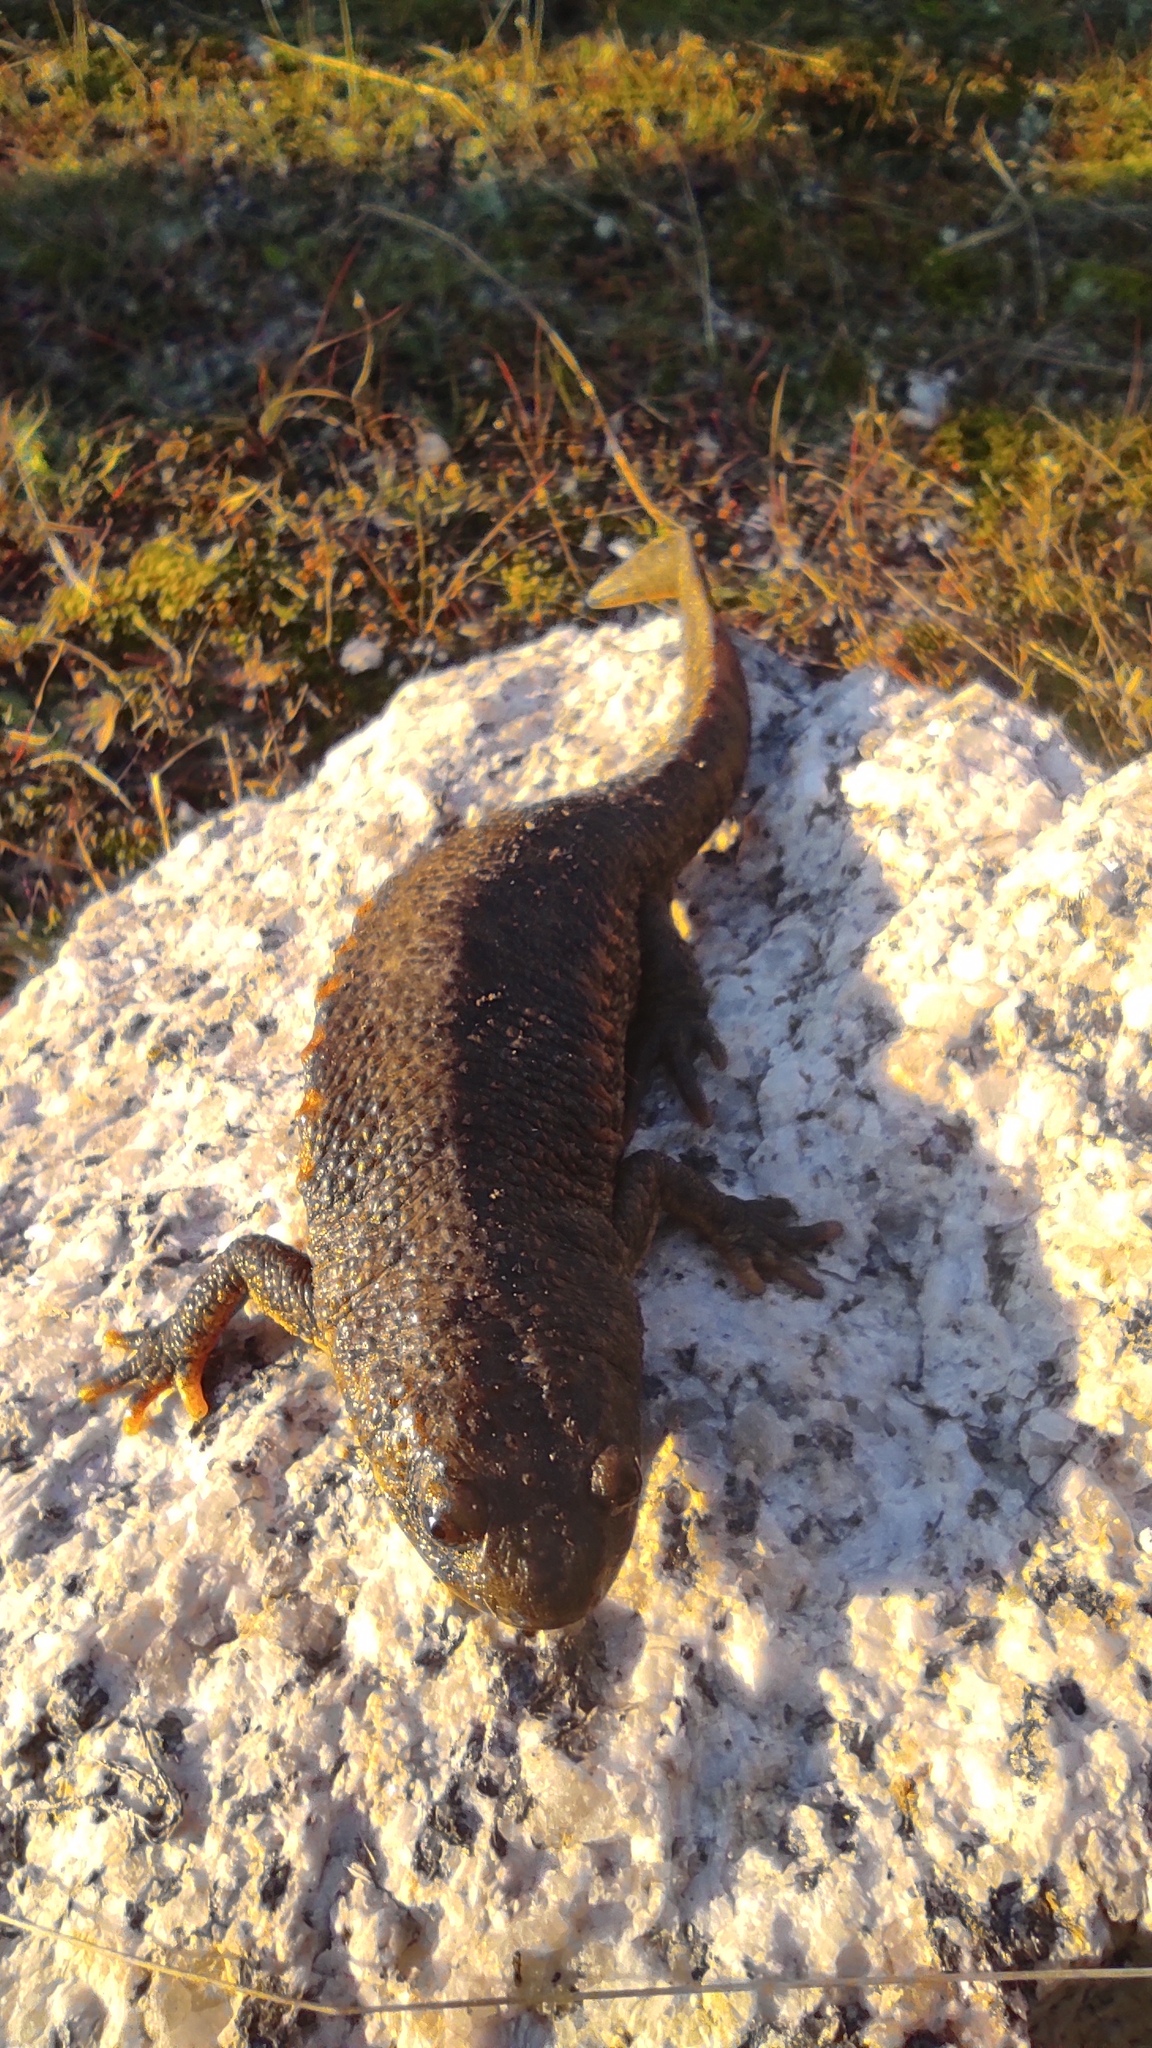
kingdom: Animalia
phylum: Chordata
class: Amphibia
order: Caudata
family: Salamandridae
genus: Pleurodeles
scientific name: Pleurodeles waltl
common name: Iberian ribbed newt
